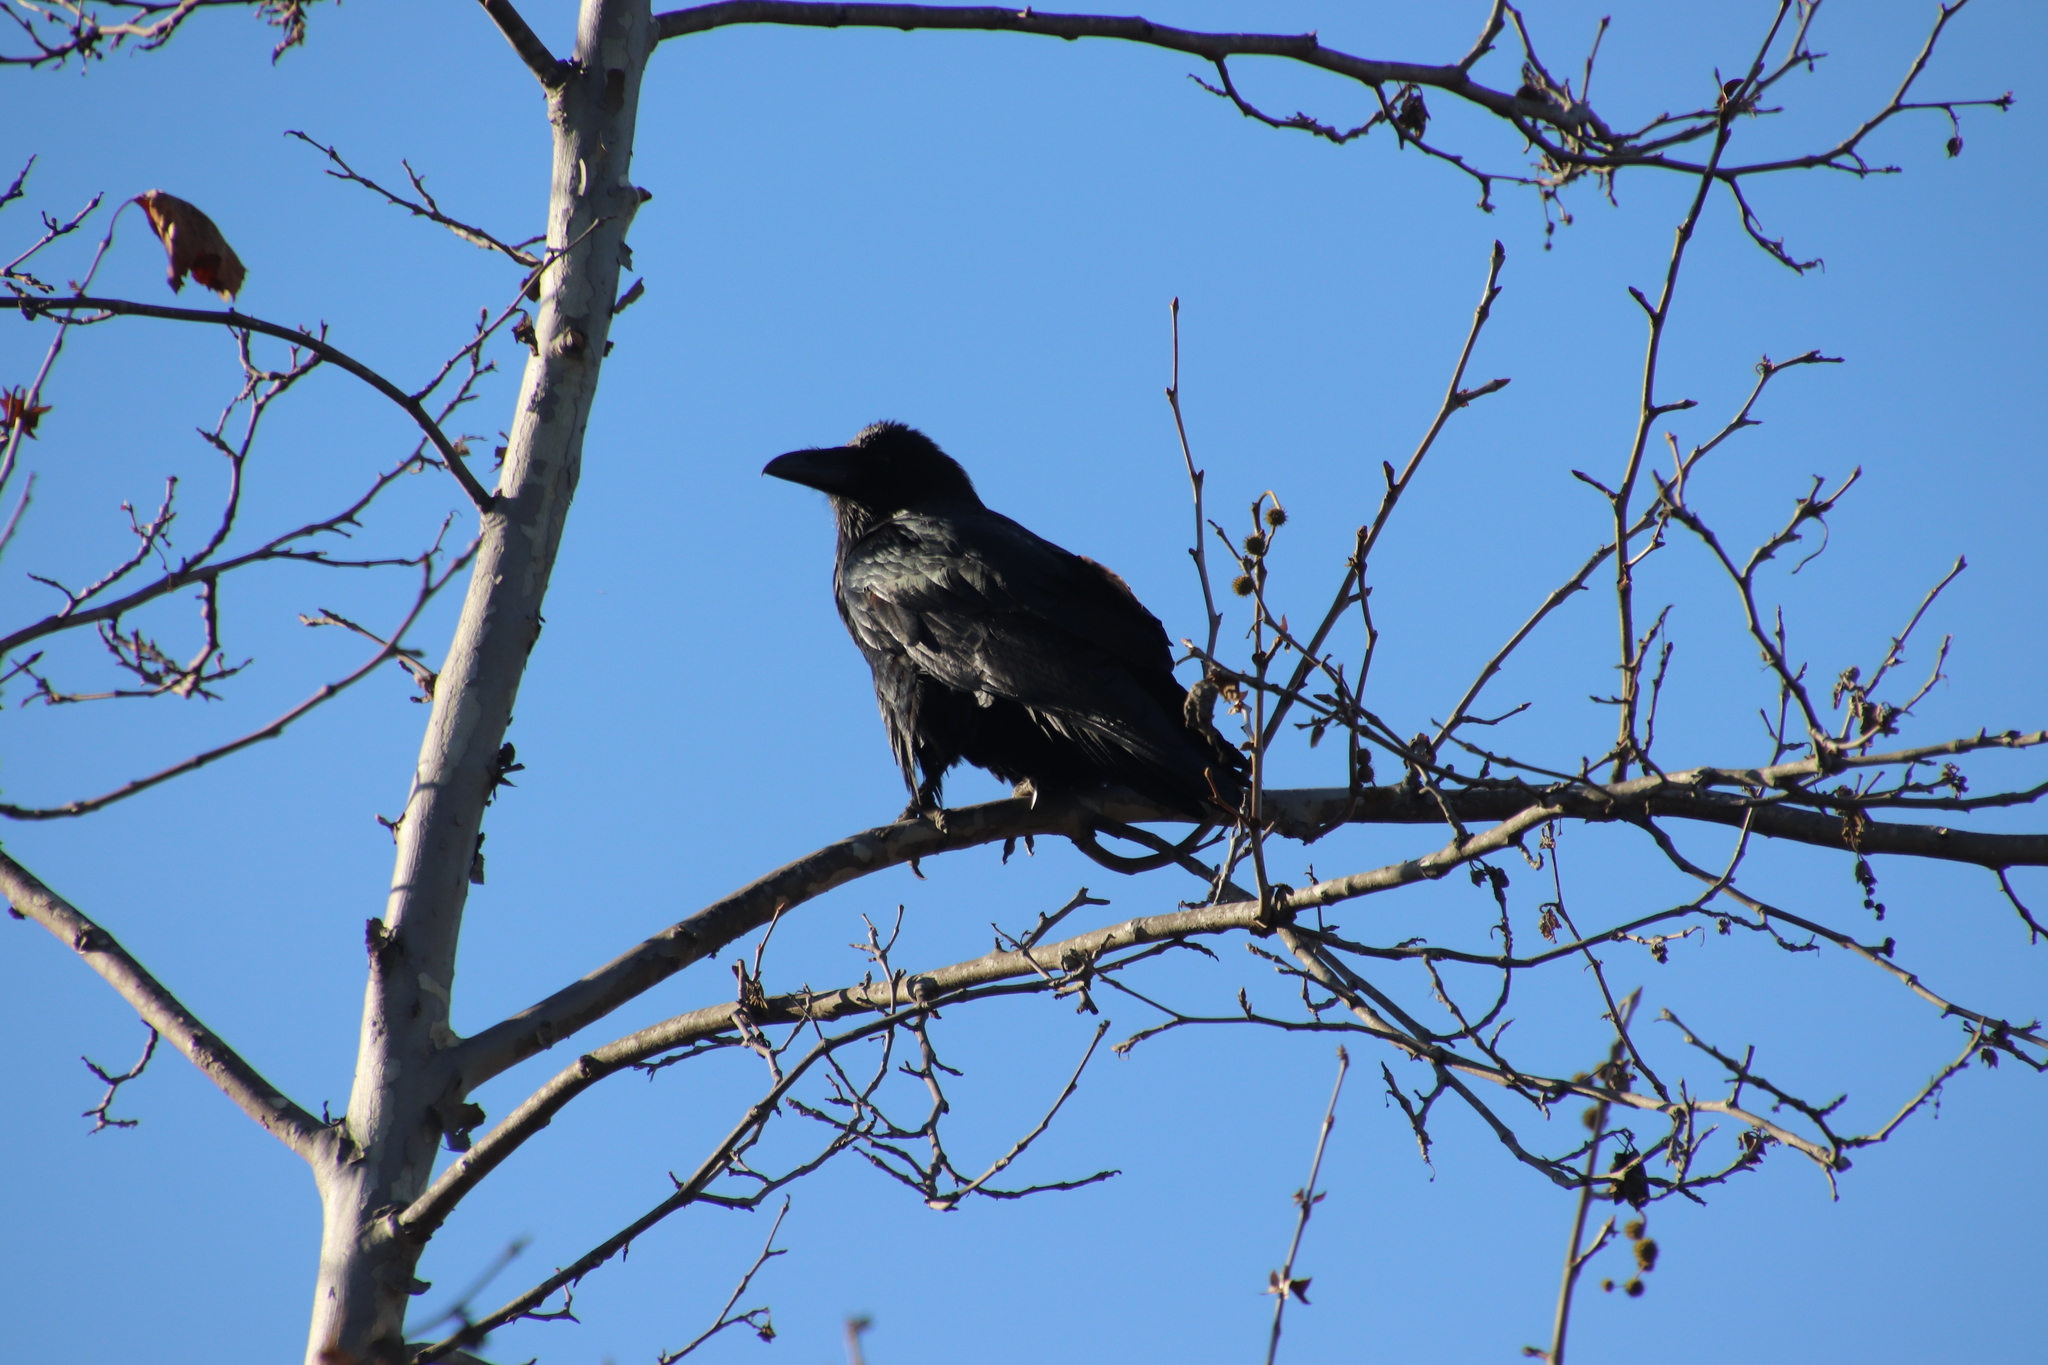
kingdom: Animalia
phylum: Chordata
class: Aves
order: Passeriformes
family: Corvidae
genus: Corvus
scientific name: Corvus corax
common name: Common raven
